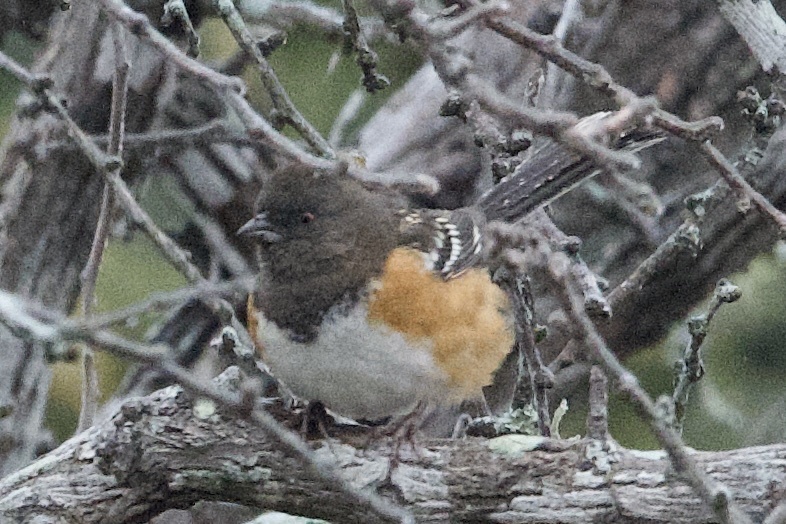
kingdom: Animalia
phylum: Chordata
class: Aves
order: Passeriformes
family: Passerellidae
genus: Pipilo
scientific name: Pipilo maculatus
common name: Spotted towhee
